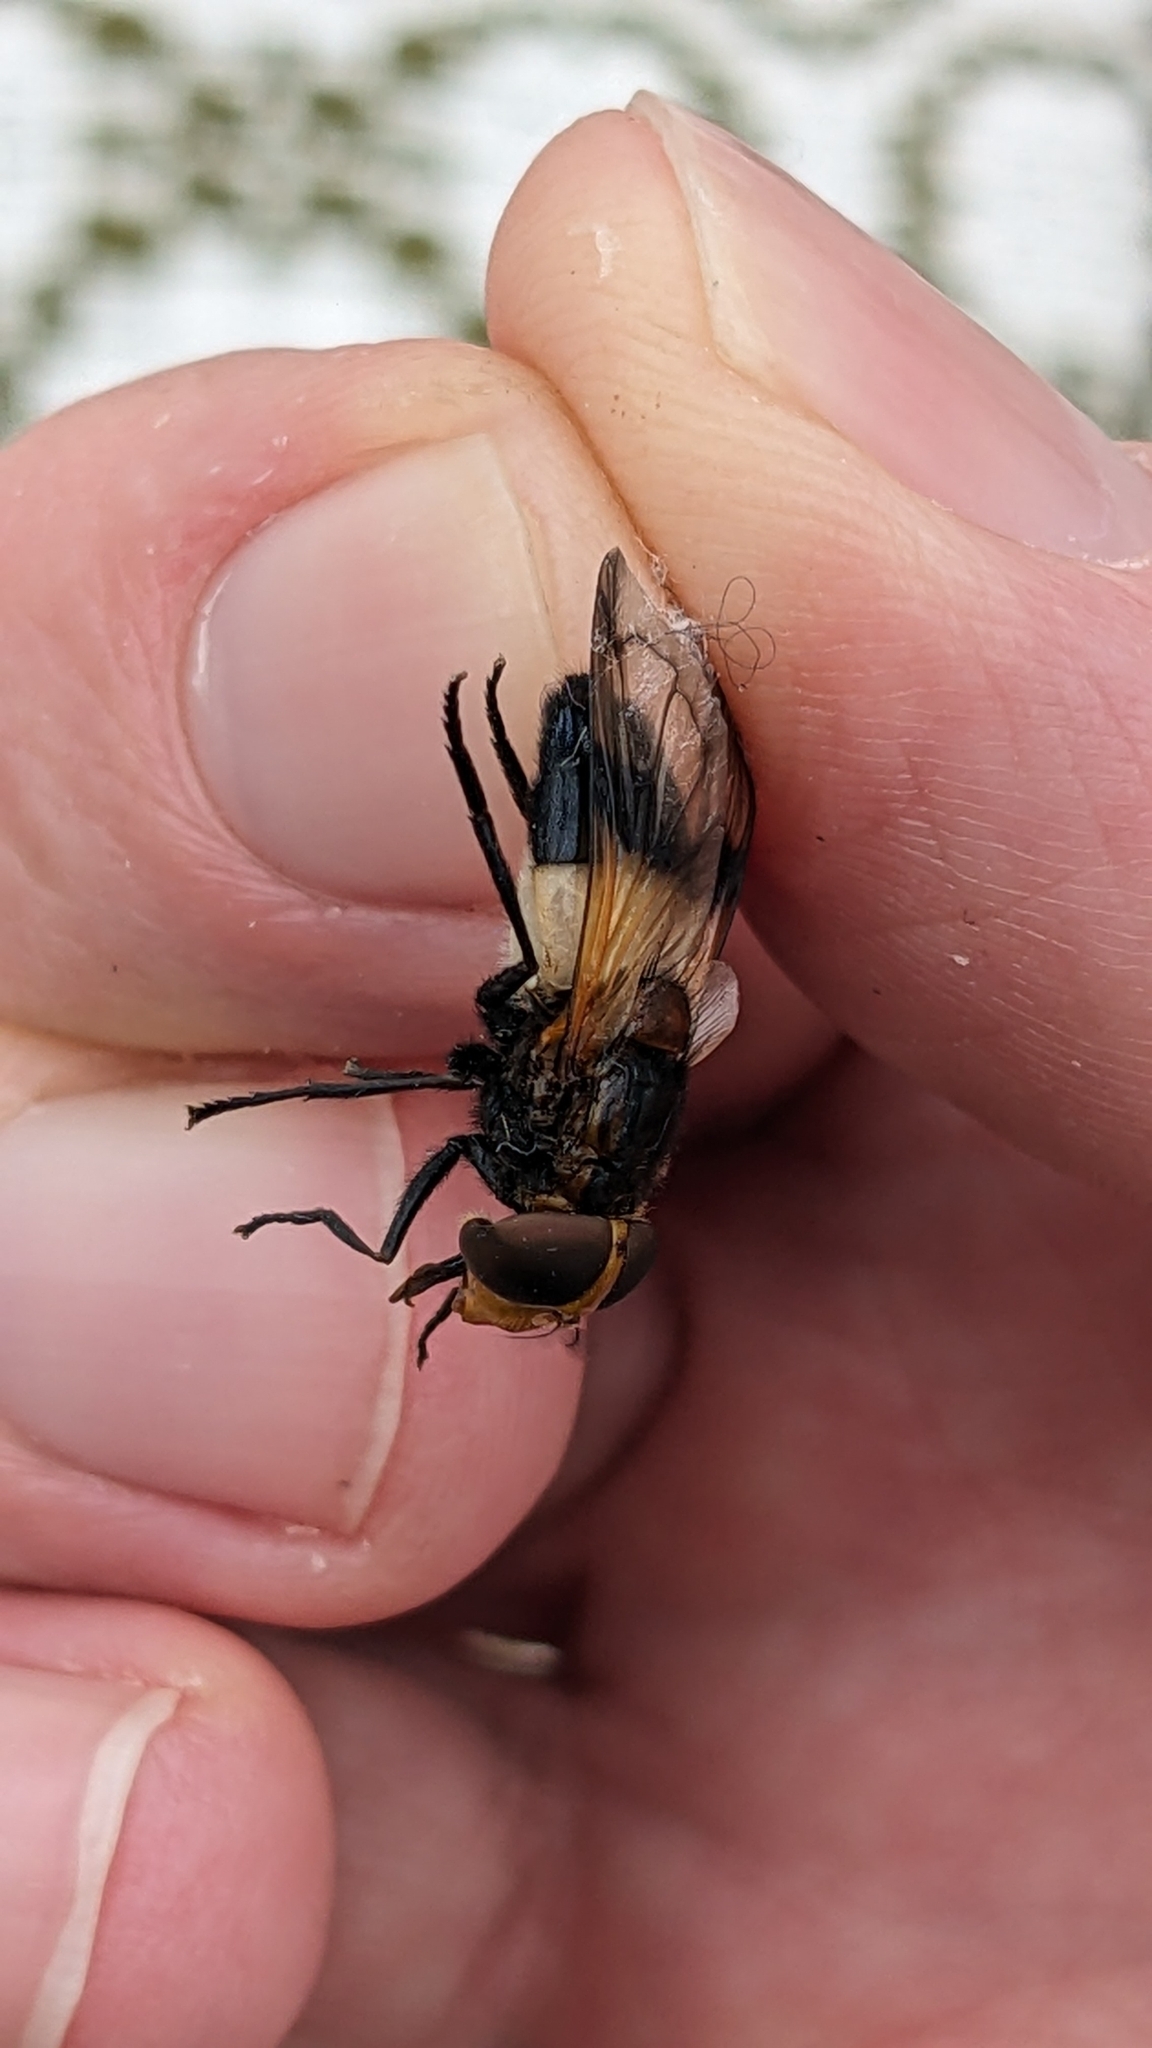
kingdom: Animalia
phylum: Arthropoda
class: Insecta
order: Diptera
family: Syrphidae
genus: Volucella
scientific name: Volucella pellucens
